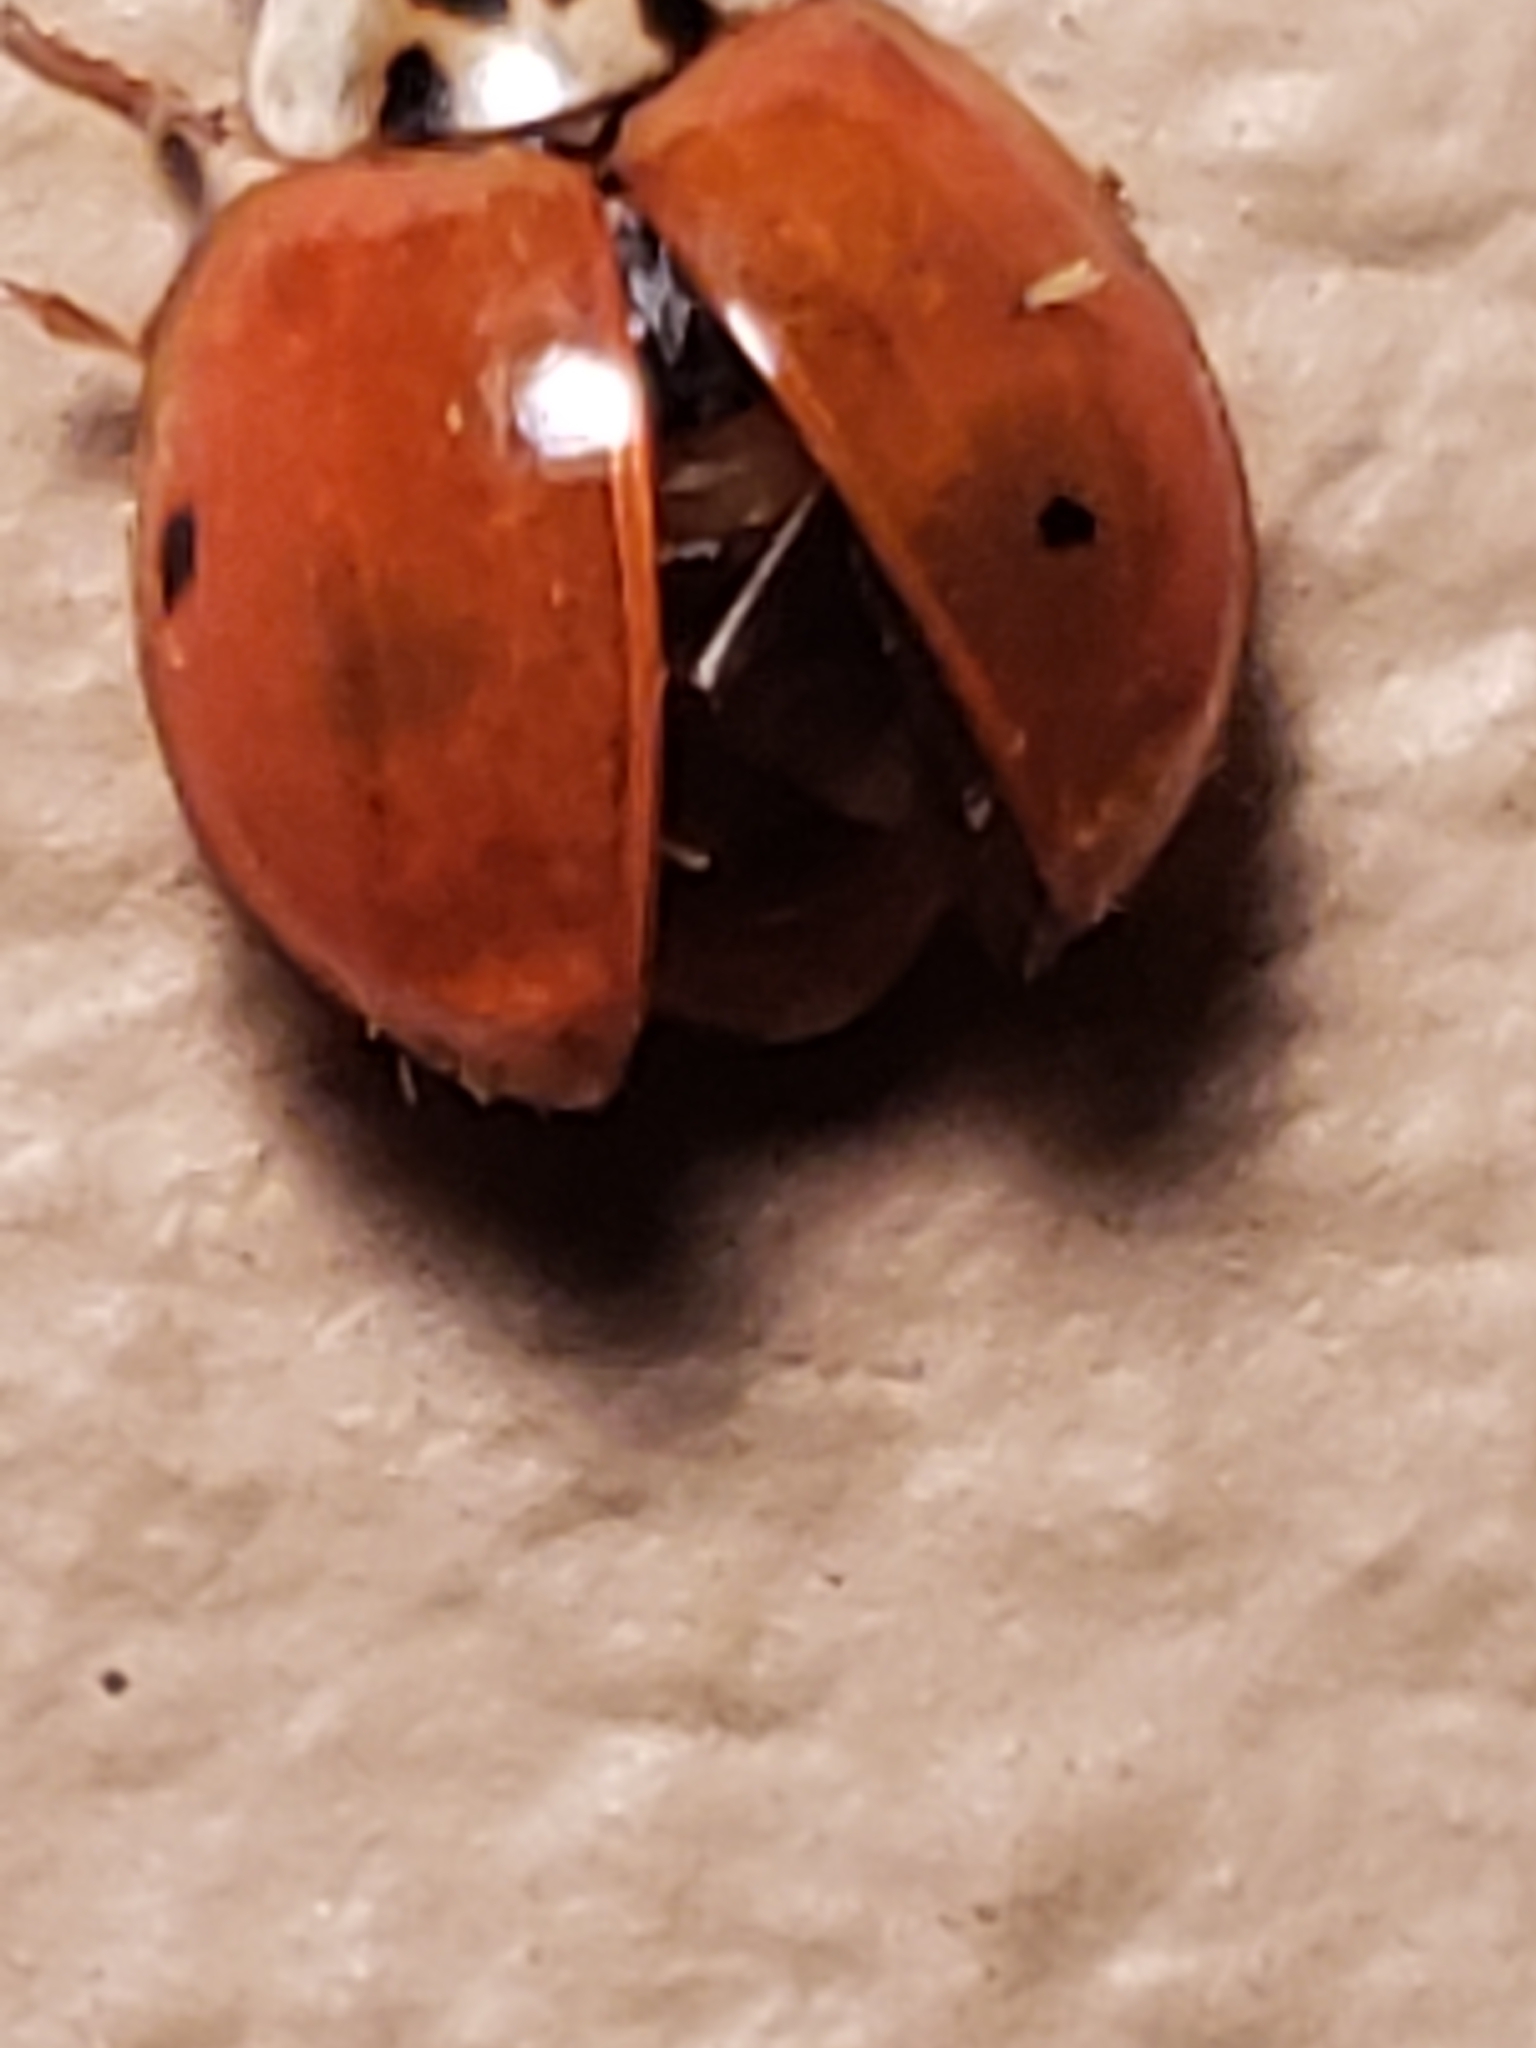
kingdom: Animalia
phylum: Arthropoda
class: Insecta
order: Coleoptera
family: Coccinellidae
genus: Harmonia
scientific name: Harmonia axyridis
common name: Harlequin ladybird
